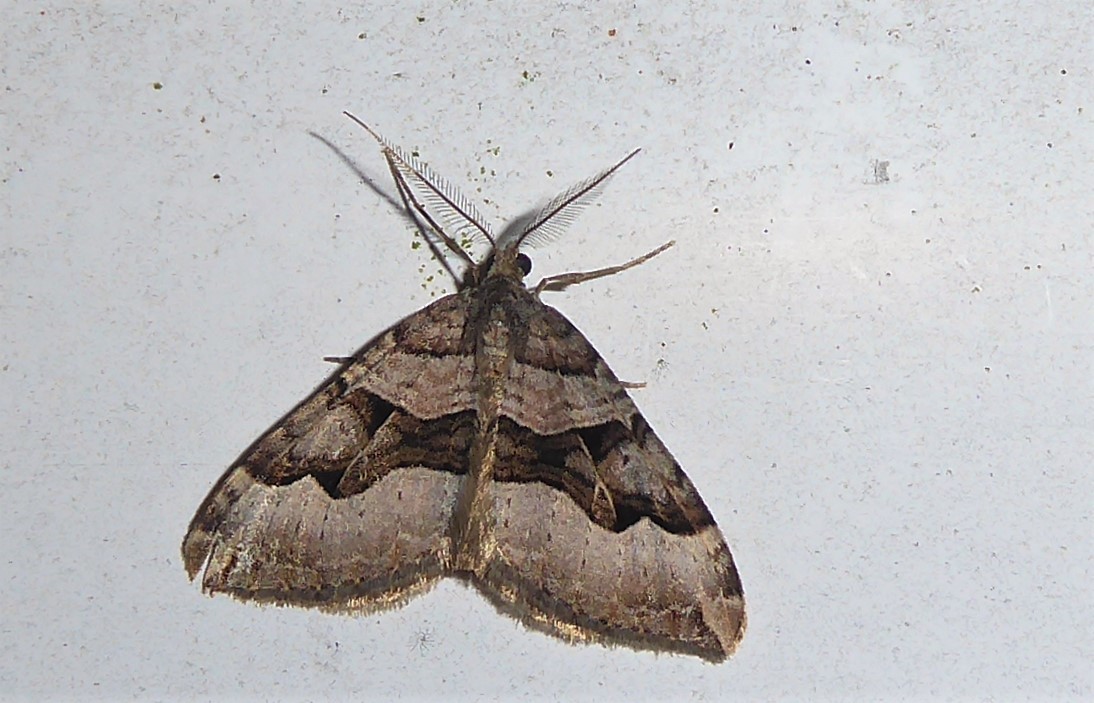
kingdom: Animalia
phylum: Arthropoda
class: Insecta
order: Lepidoptera
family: Geometridae
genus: Xanthorhoe
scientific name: Xanthorhoe semifissata
